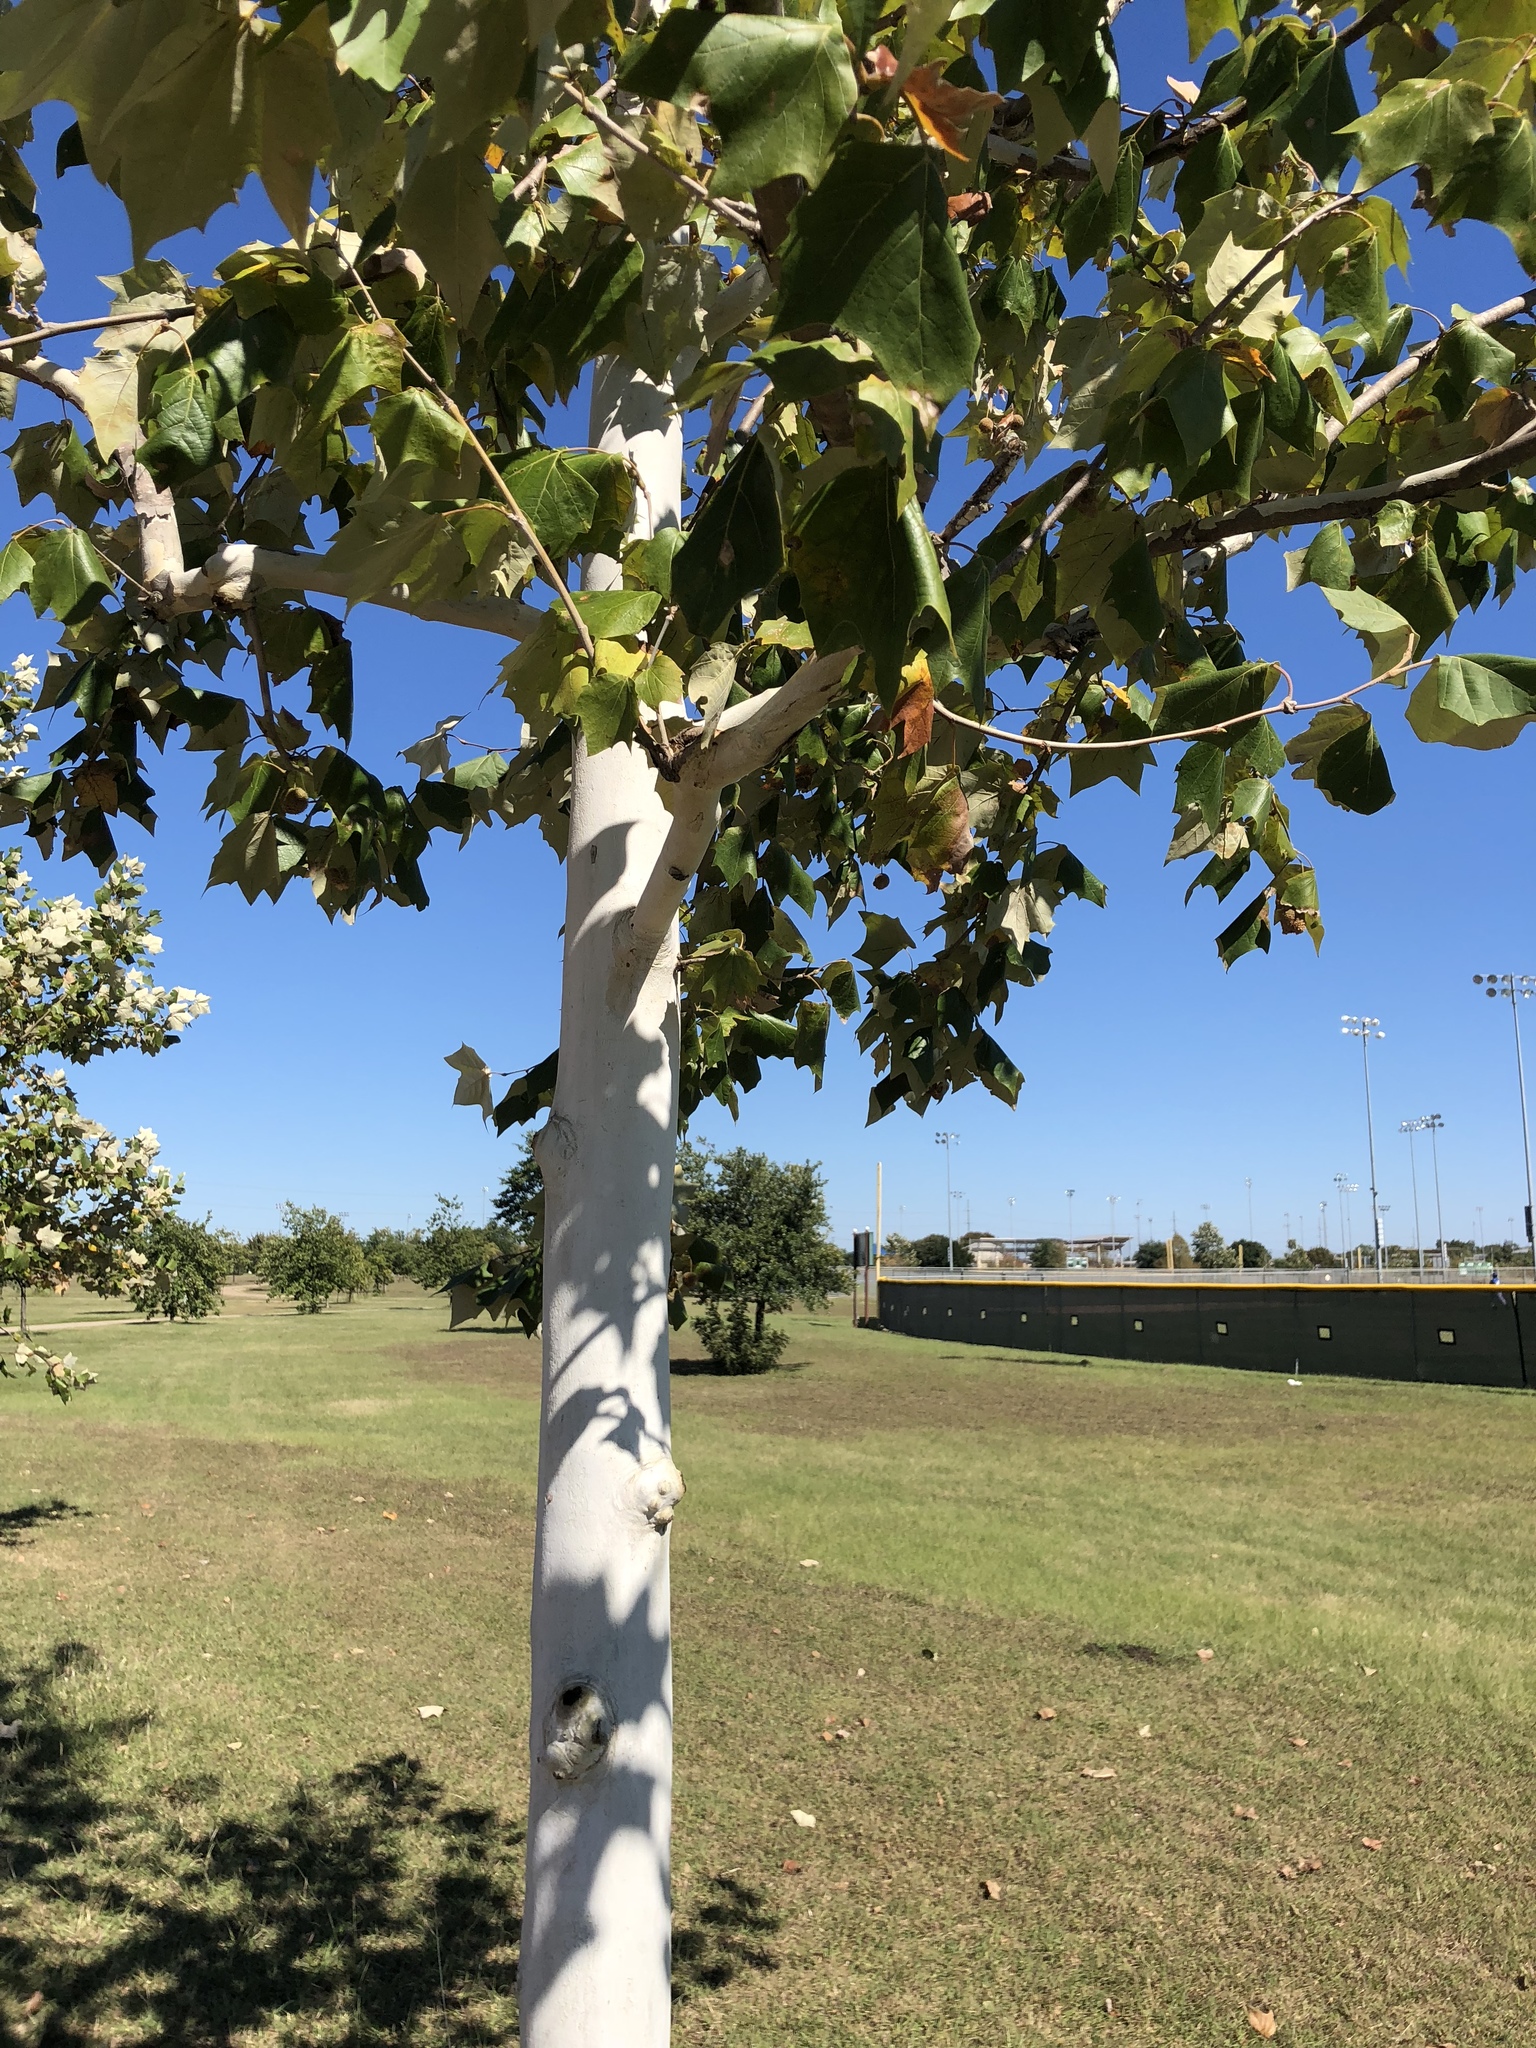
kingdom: Plantae
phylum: Tracheophyta
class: Magnoliopsida
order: Proteales
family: Platanaceae
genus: Platanus
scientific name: Platanus occidentalis
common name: American sycamore
